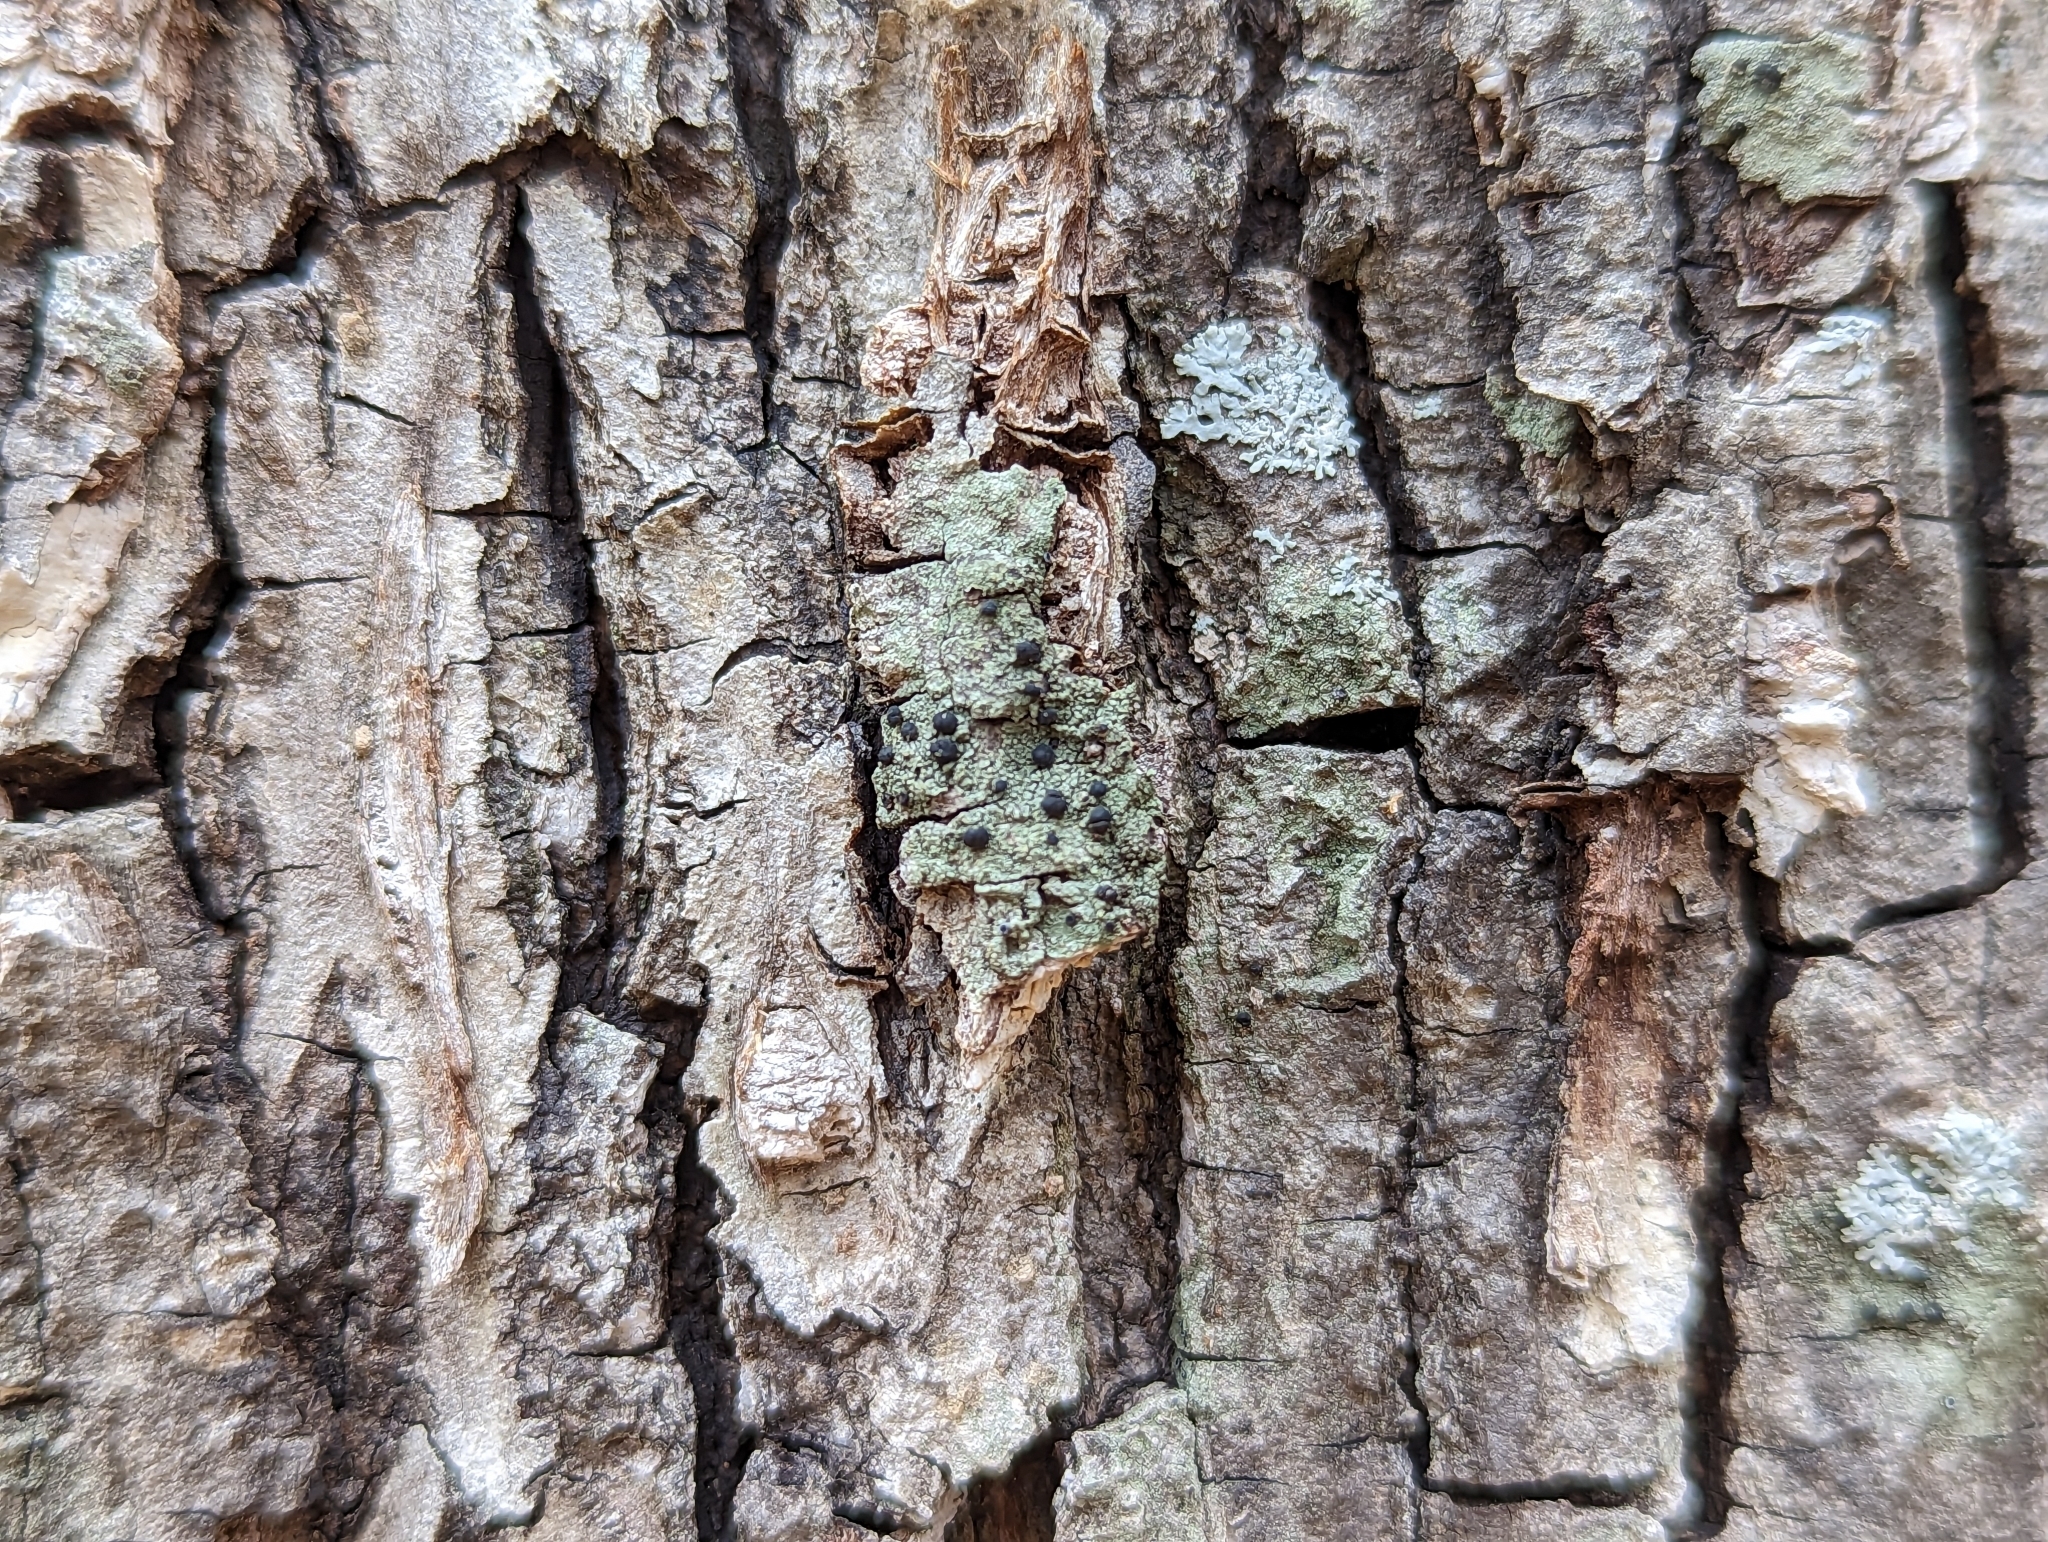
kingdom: Fungi
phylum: Ascomycota
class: Lecanoromycetes
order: Lecanorales
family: Ramalinaceae
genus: Bacidia
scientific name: Bacidia schweinitzii
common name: Surprise lichen
